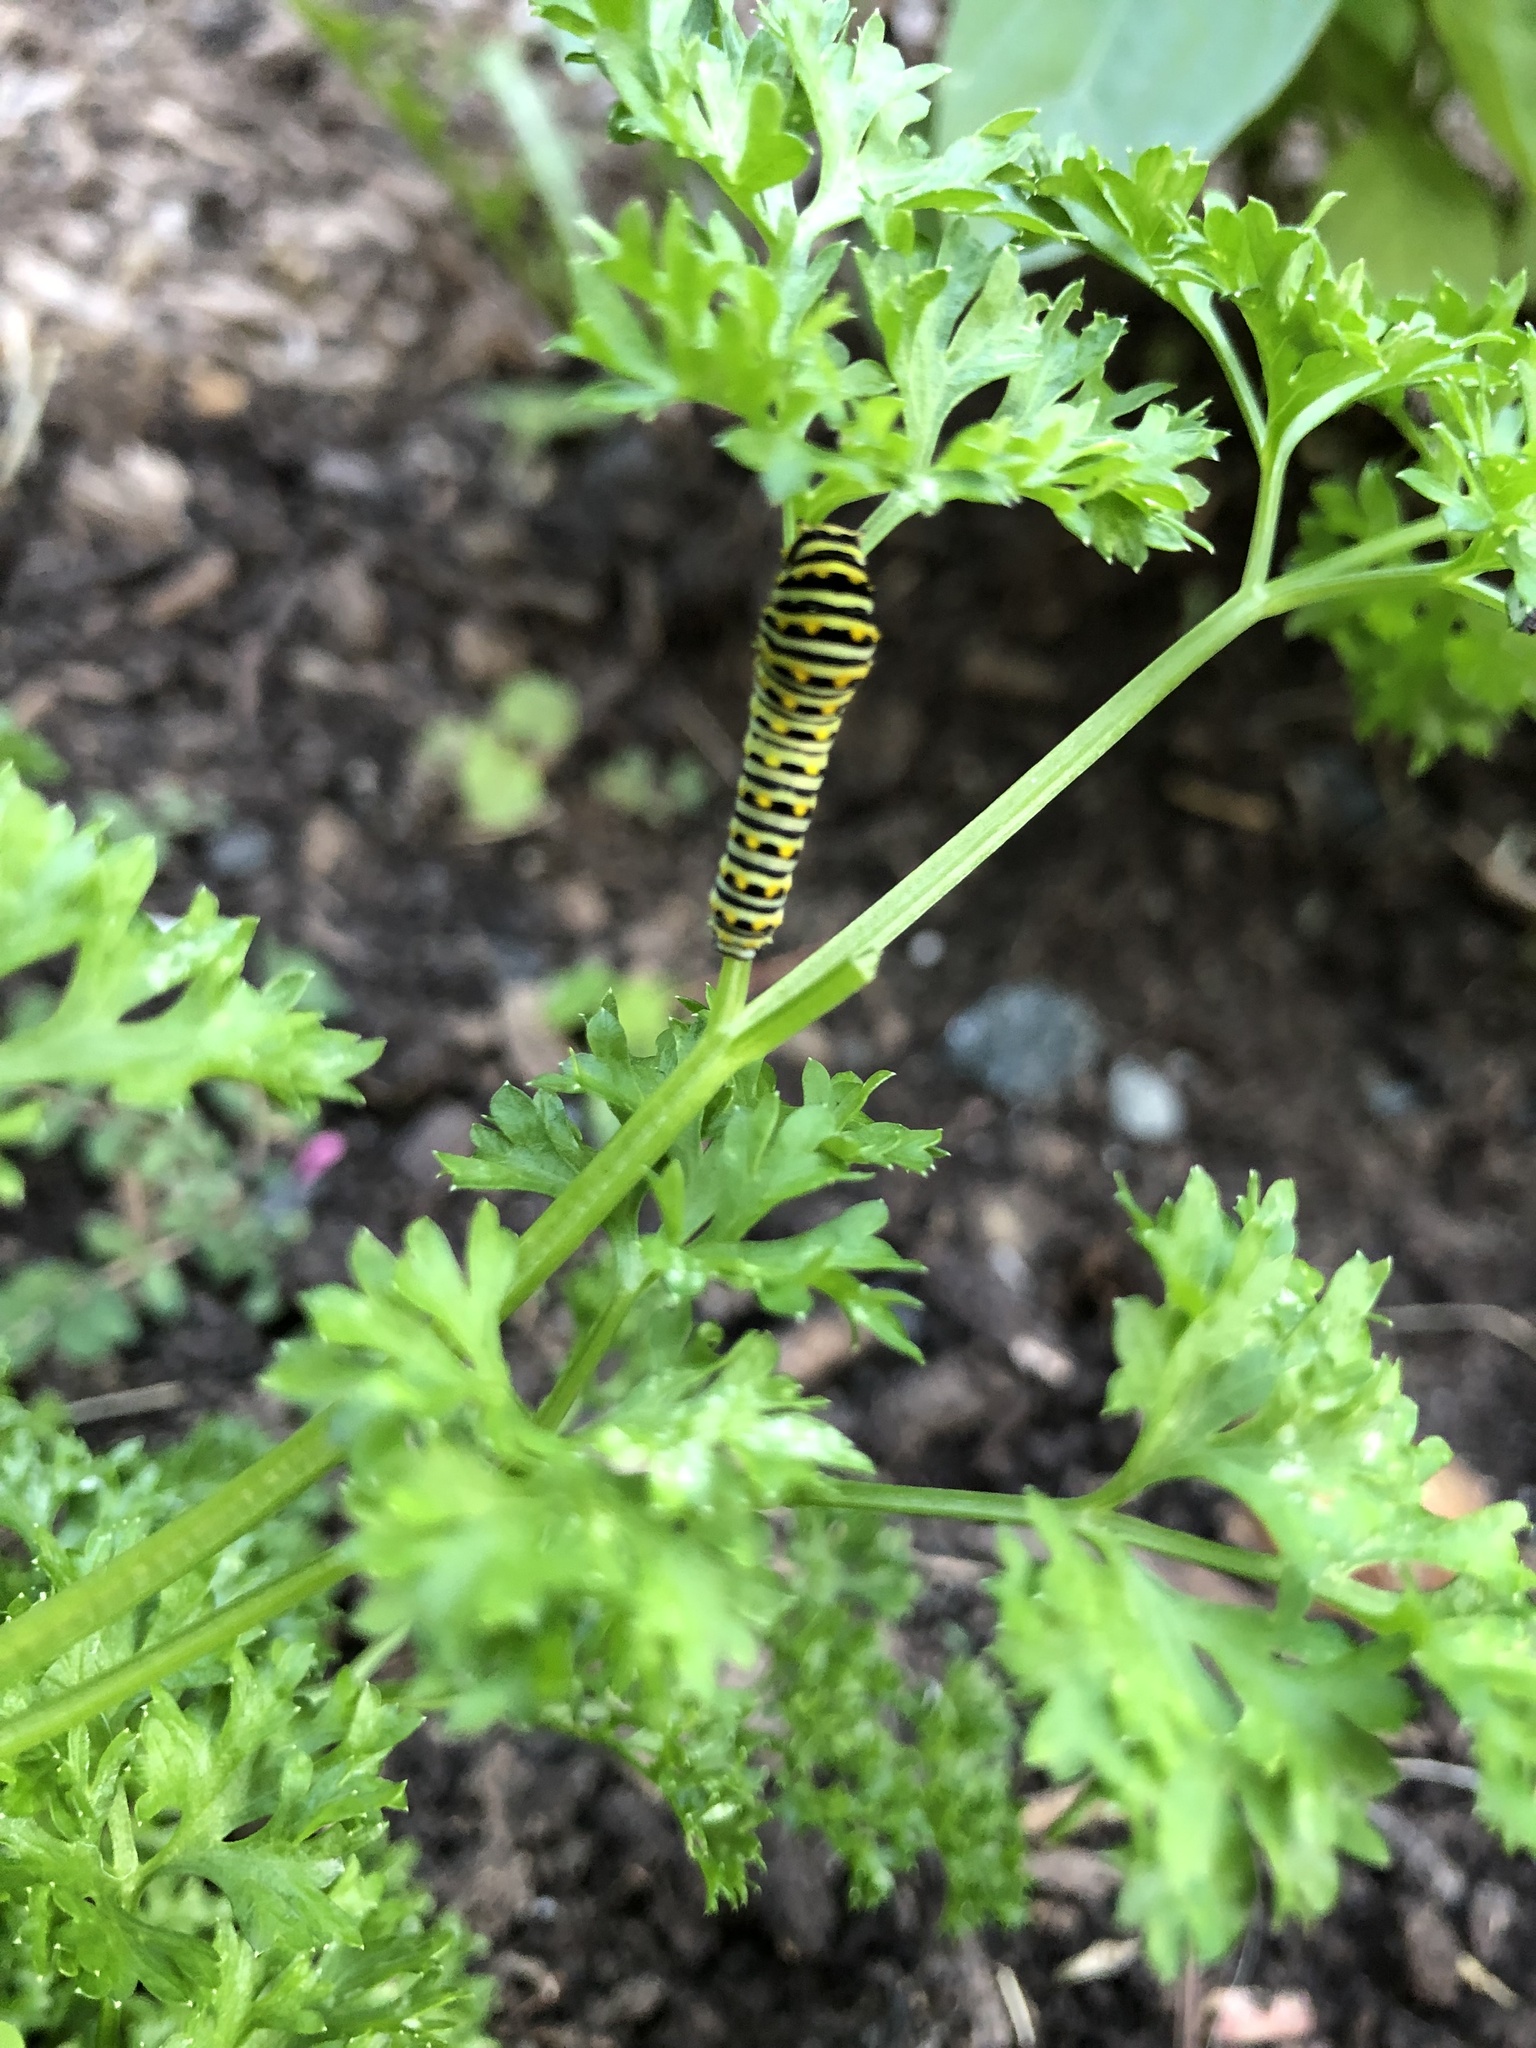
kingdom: Animalia
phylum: Arthropoda
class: Insecta
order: Lepidoptera
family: Papilionidae
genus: Papilio
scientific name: Papilio polyxenes
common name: Black swallowtail
